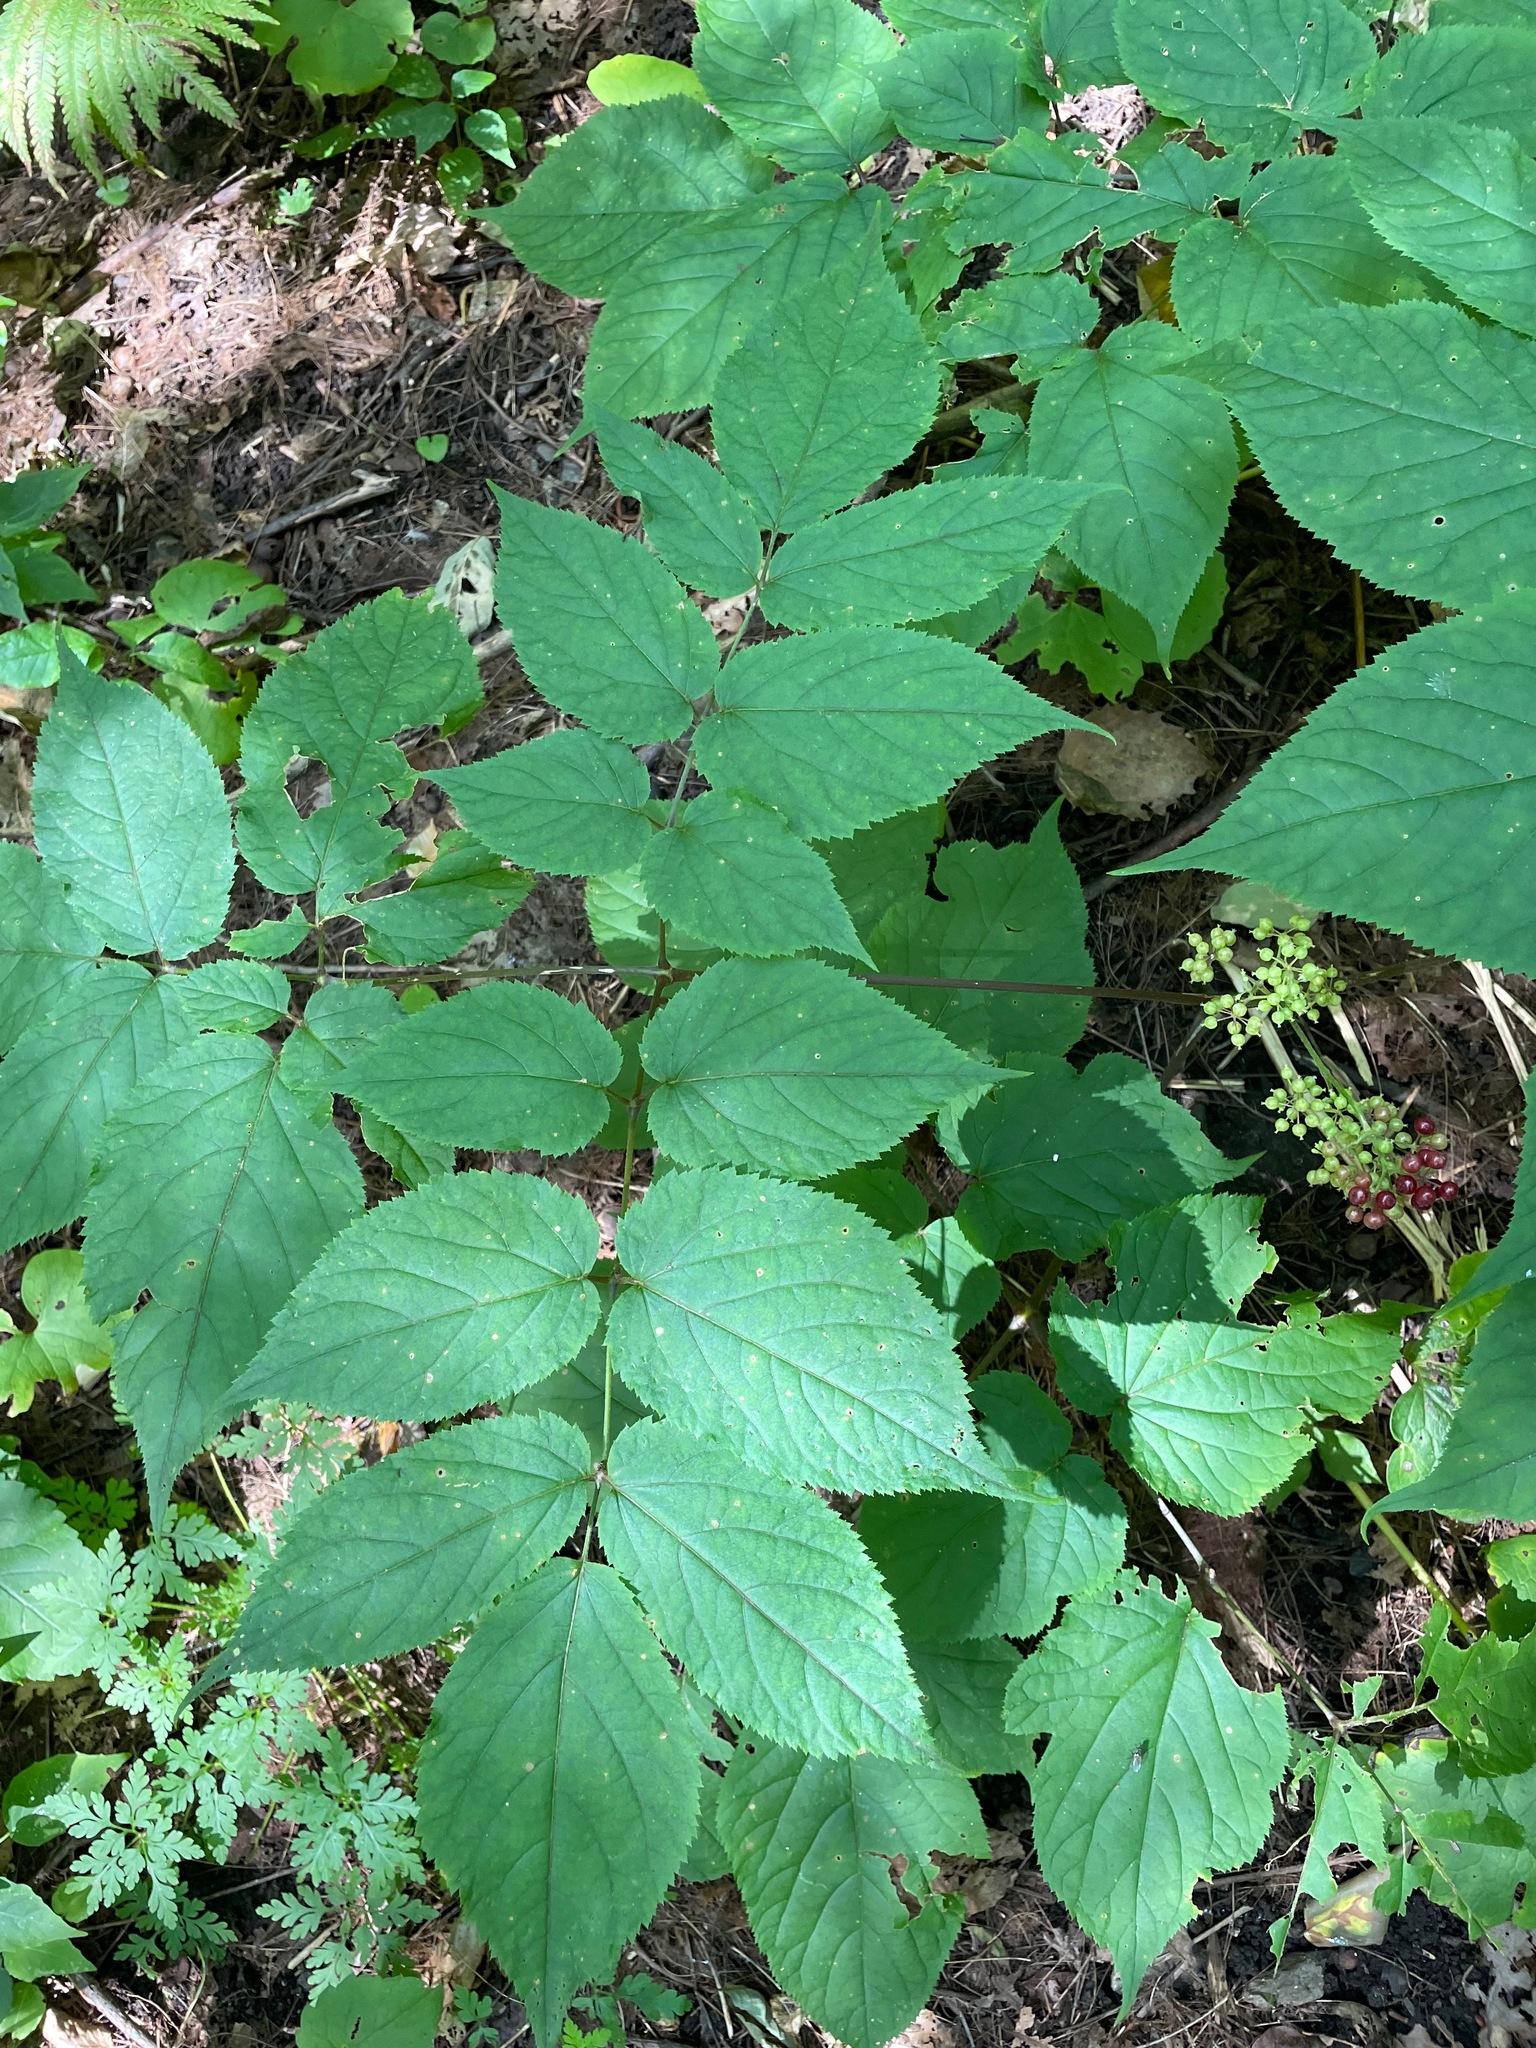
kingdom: Plantae
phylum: Tracheophyta
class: Magnoliopsida
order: Apiales
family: Araliaceae
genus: Aralia
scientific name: Aralia racemosa
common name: American-spikenard
